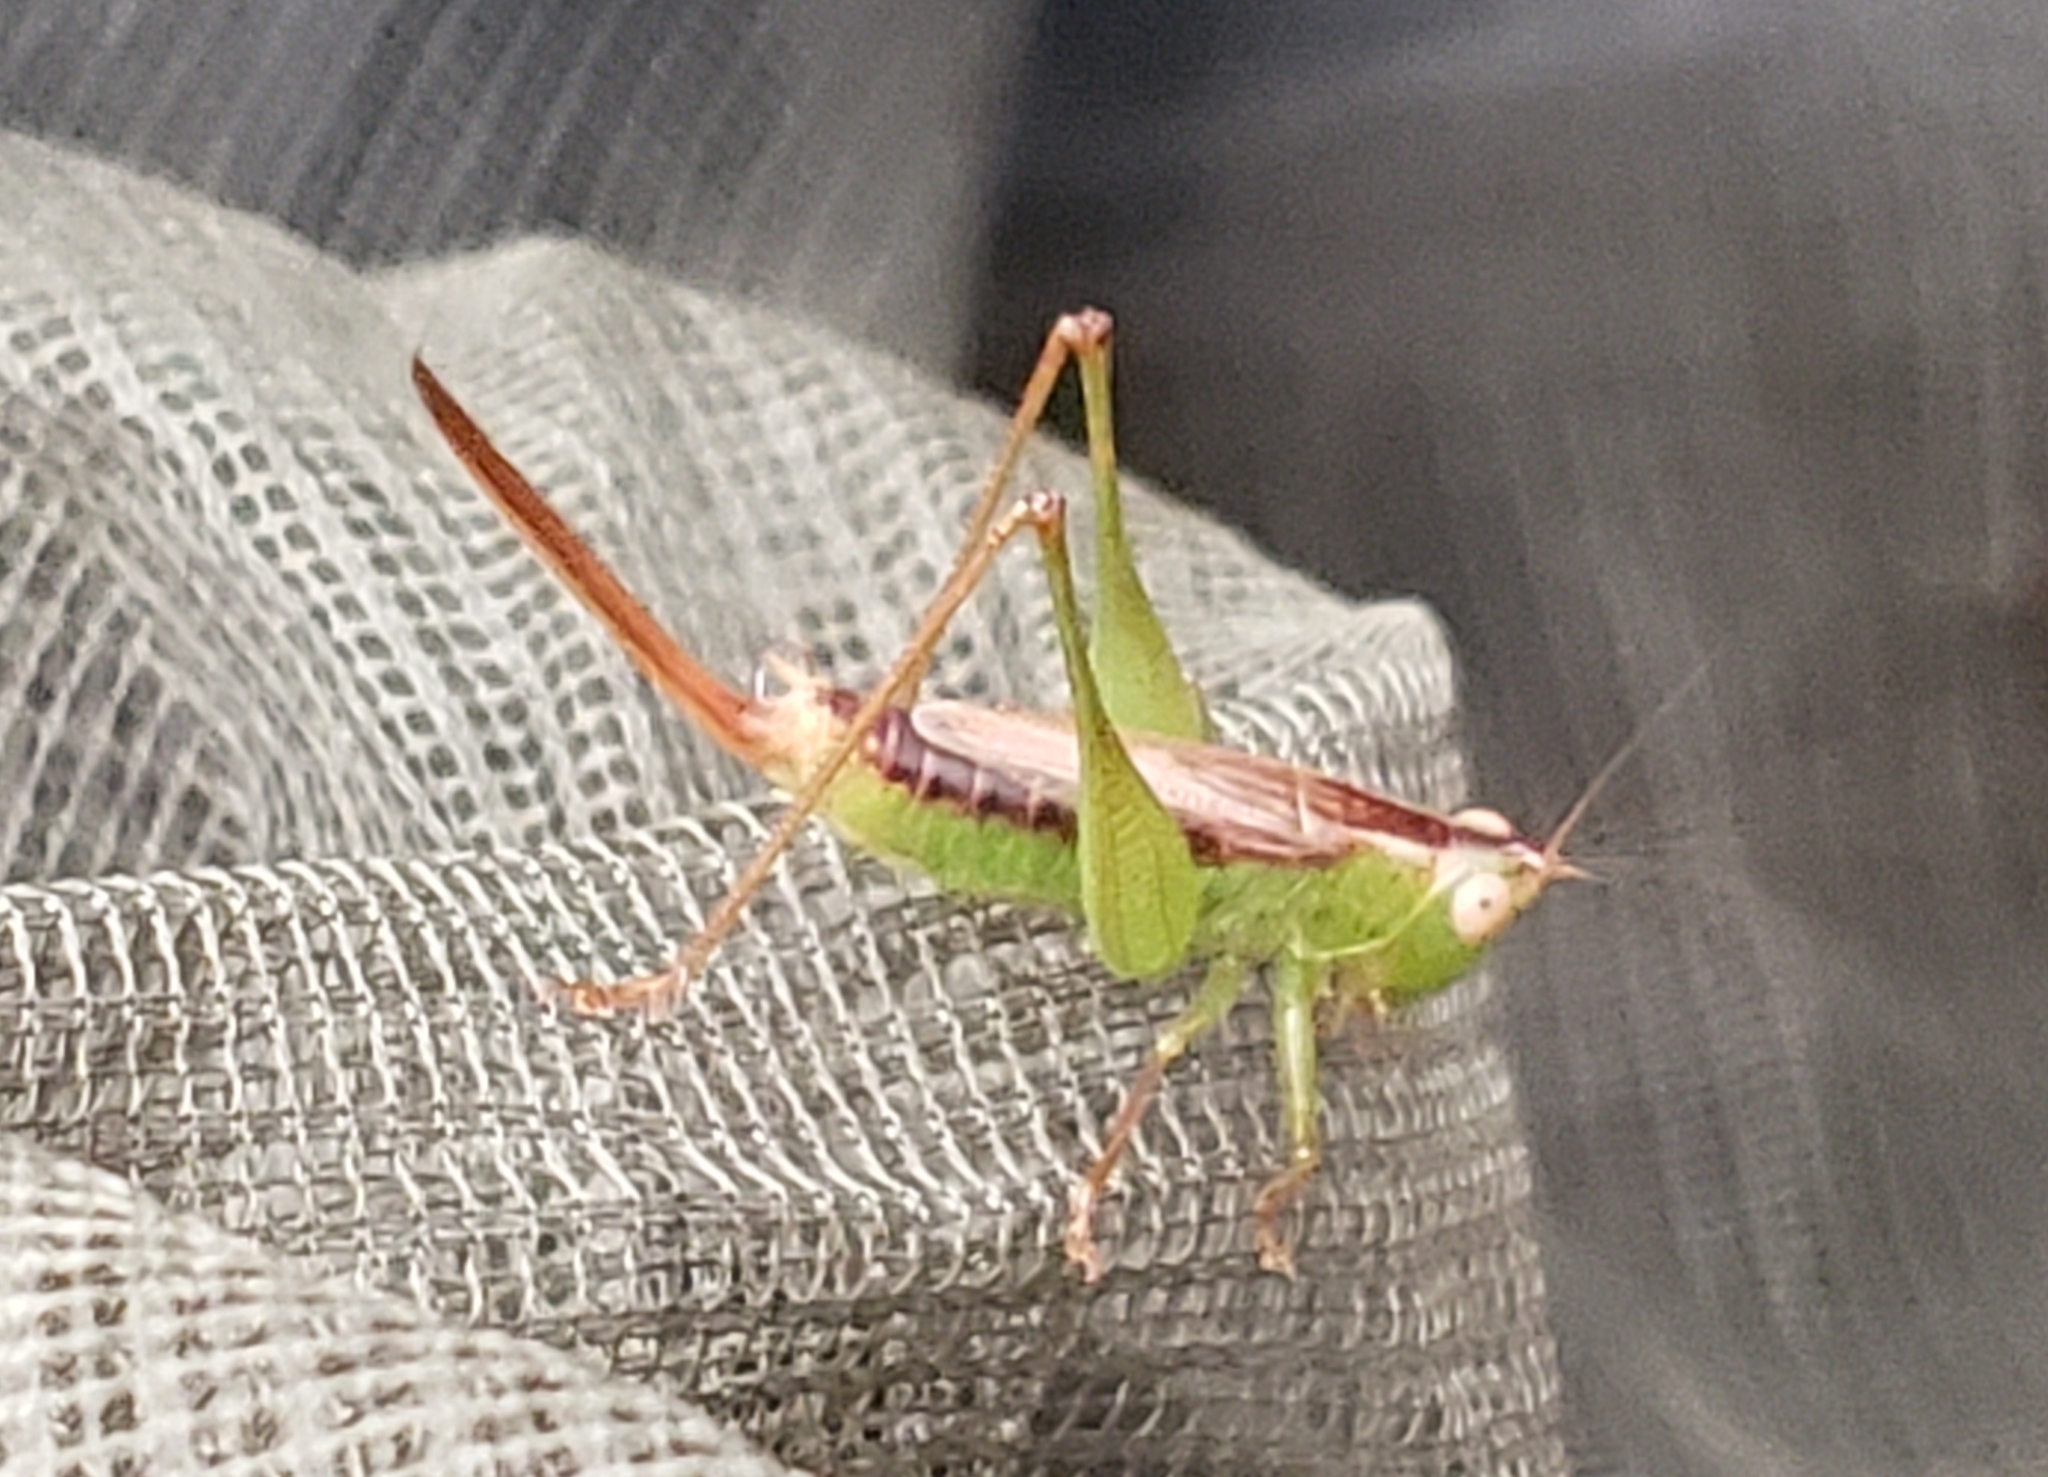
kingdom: Animalia
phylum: Arthropoda
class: Insecta
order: Orthoptera
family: Tettigoniidae
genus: Conocephalus
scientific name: Conocephalus brevipennis
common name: Short-winged meadow katydid
